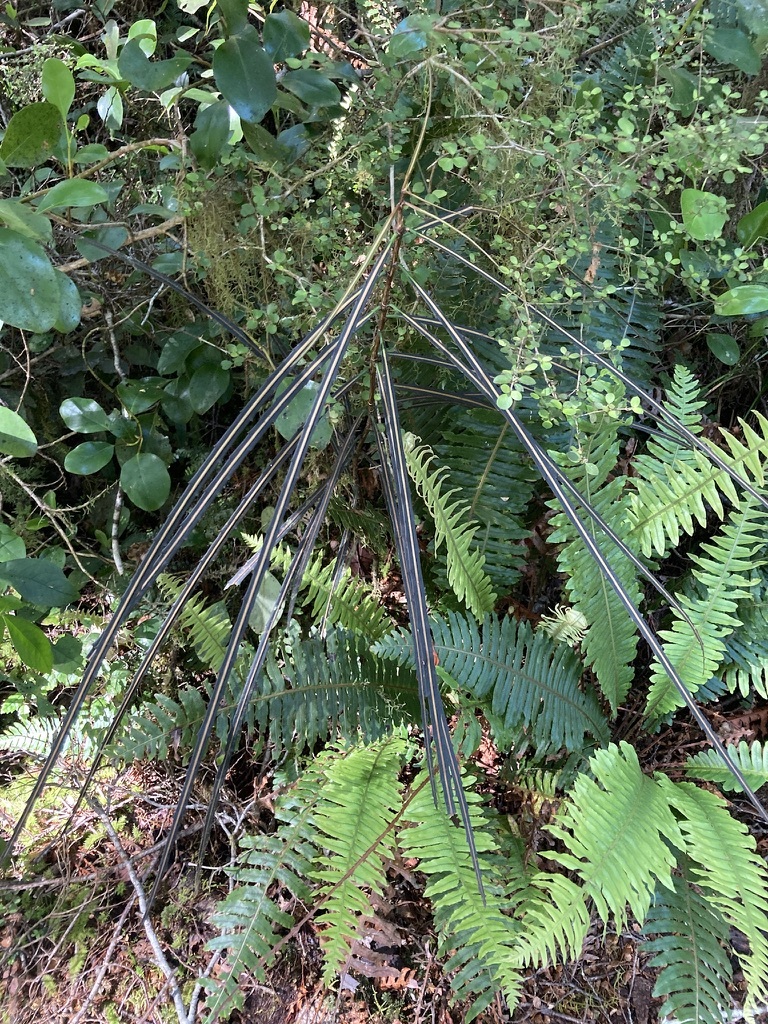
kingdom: Plantae
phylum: Tracheophyta
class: Magnoliopsida
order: Apiales
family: Araliaceae
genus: Pseudopanax
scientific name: Pseudopanax crassifolius
